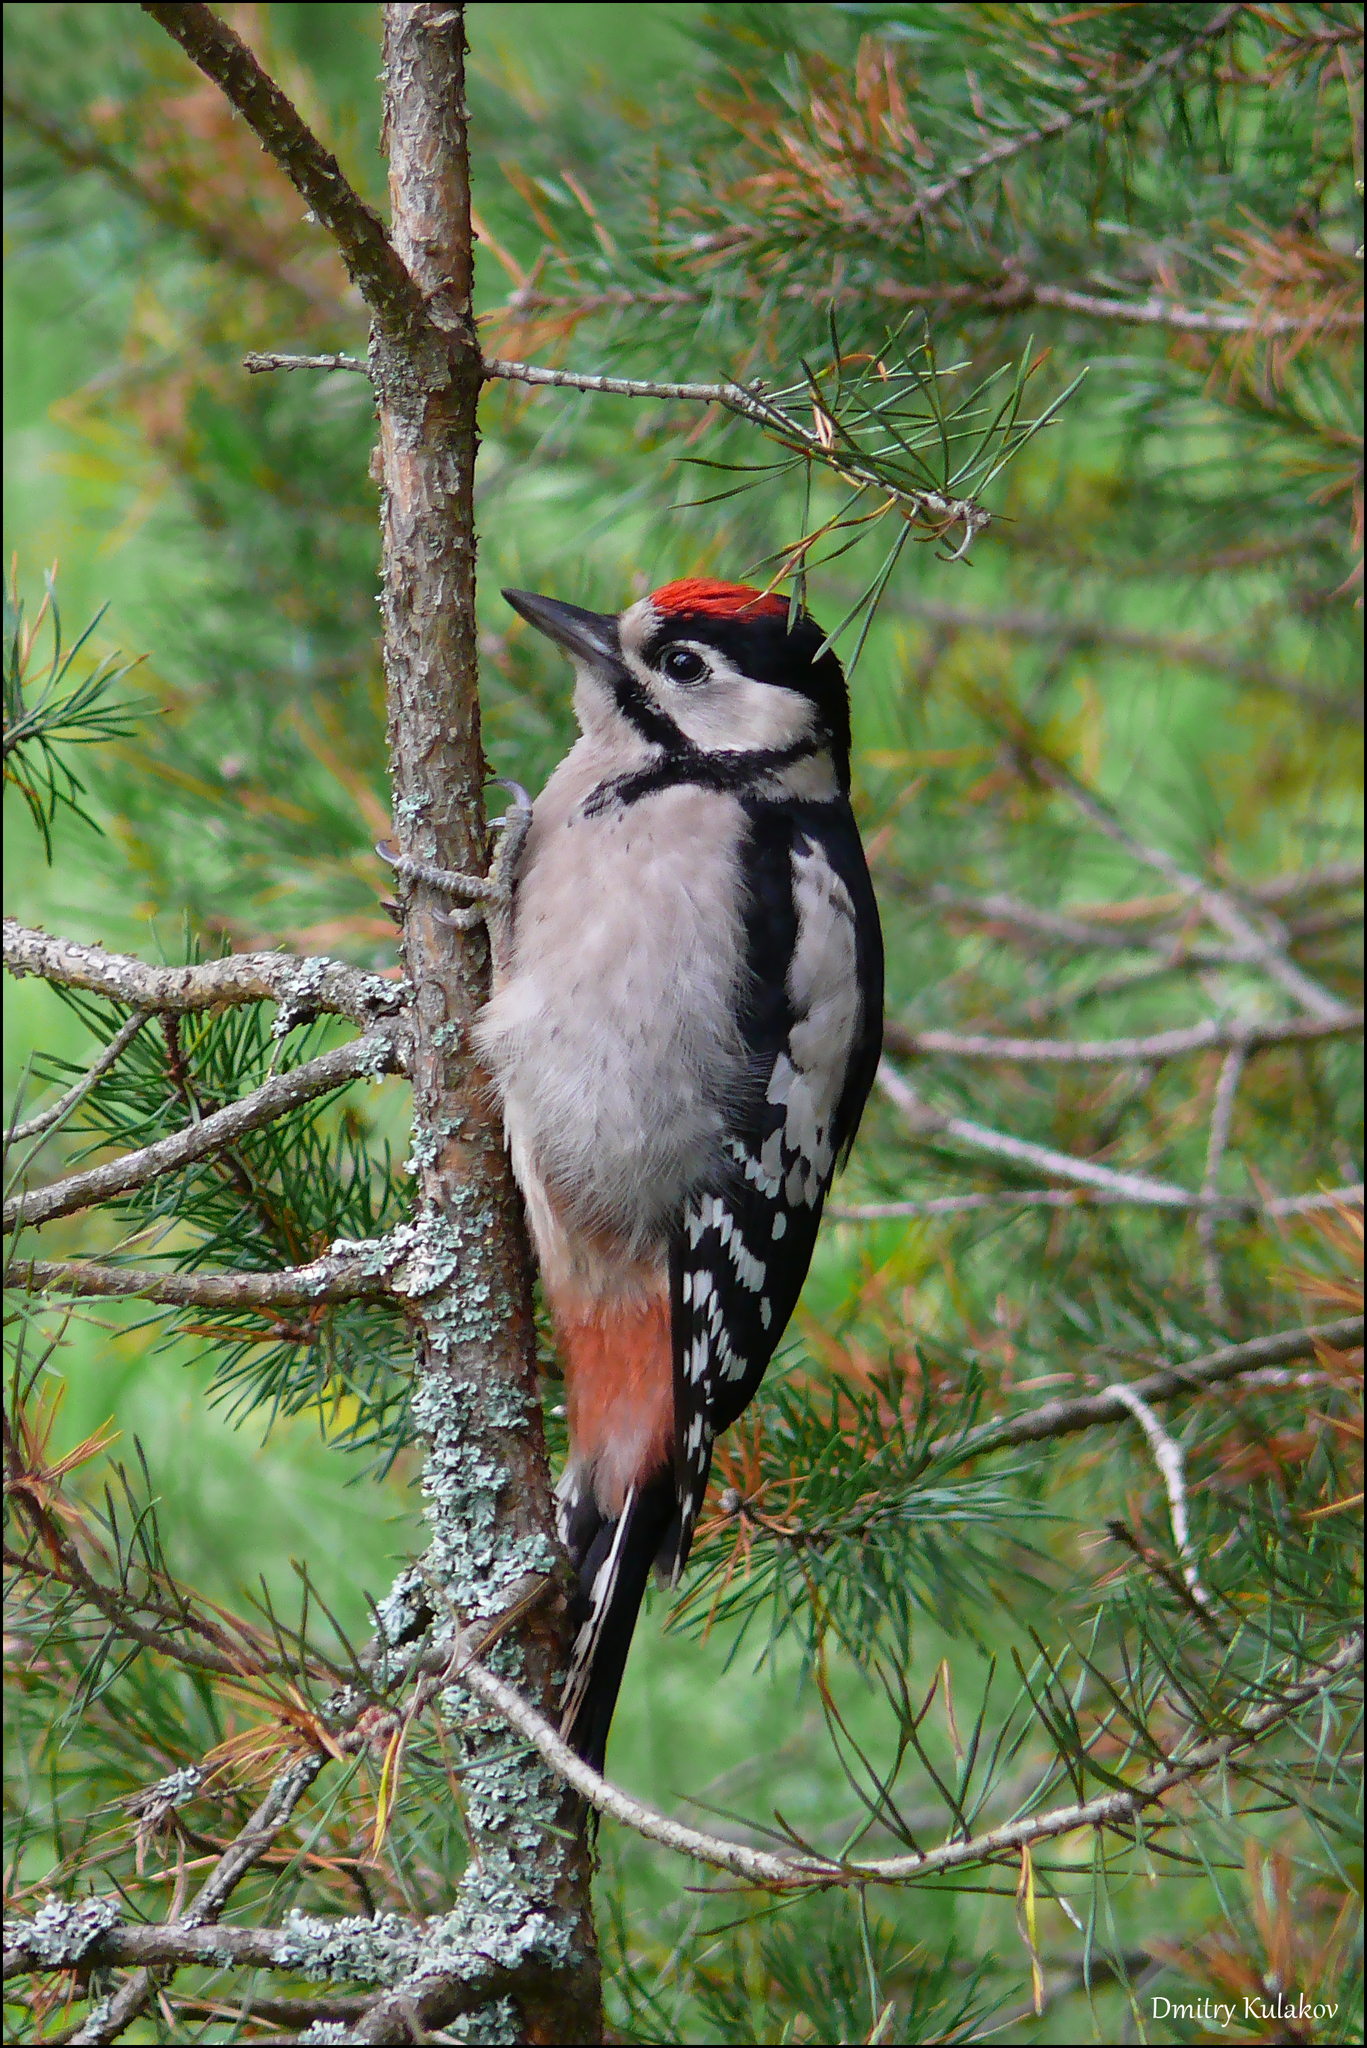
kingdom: Animalia
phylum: Chordata
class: Aves
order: Piciformes
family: Picidae
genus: Dendrocopos
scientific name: Dendrocopos major
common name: Great spotted woodpecker
